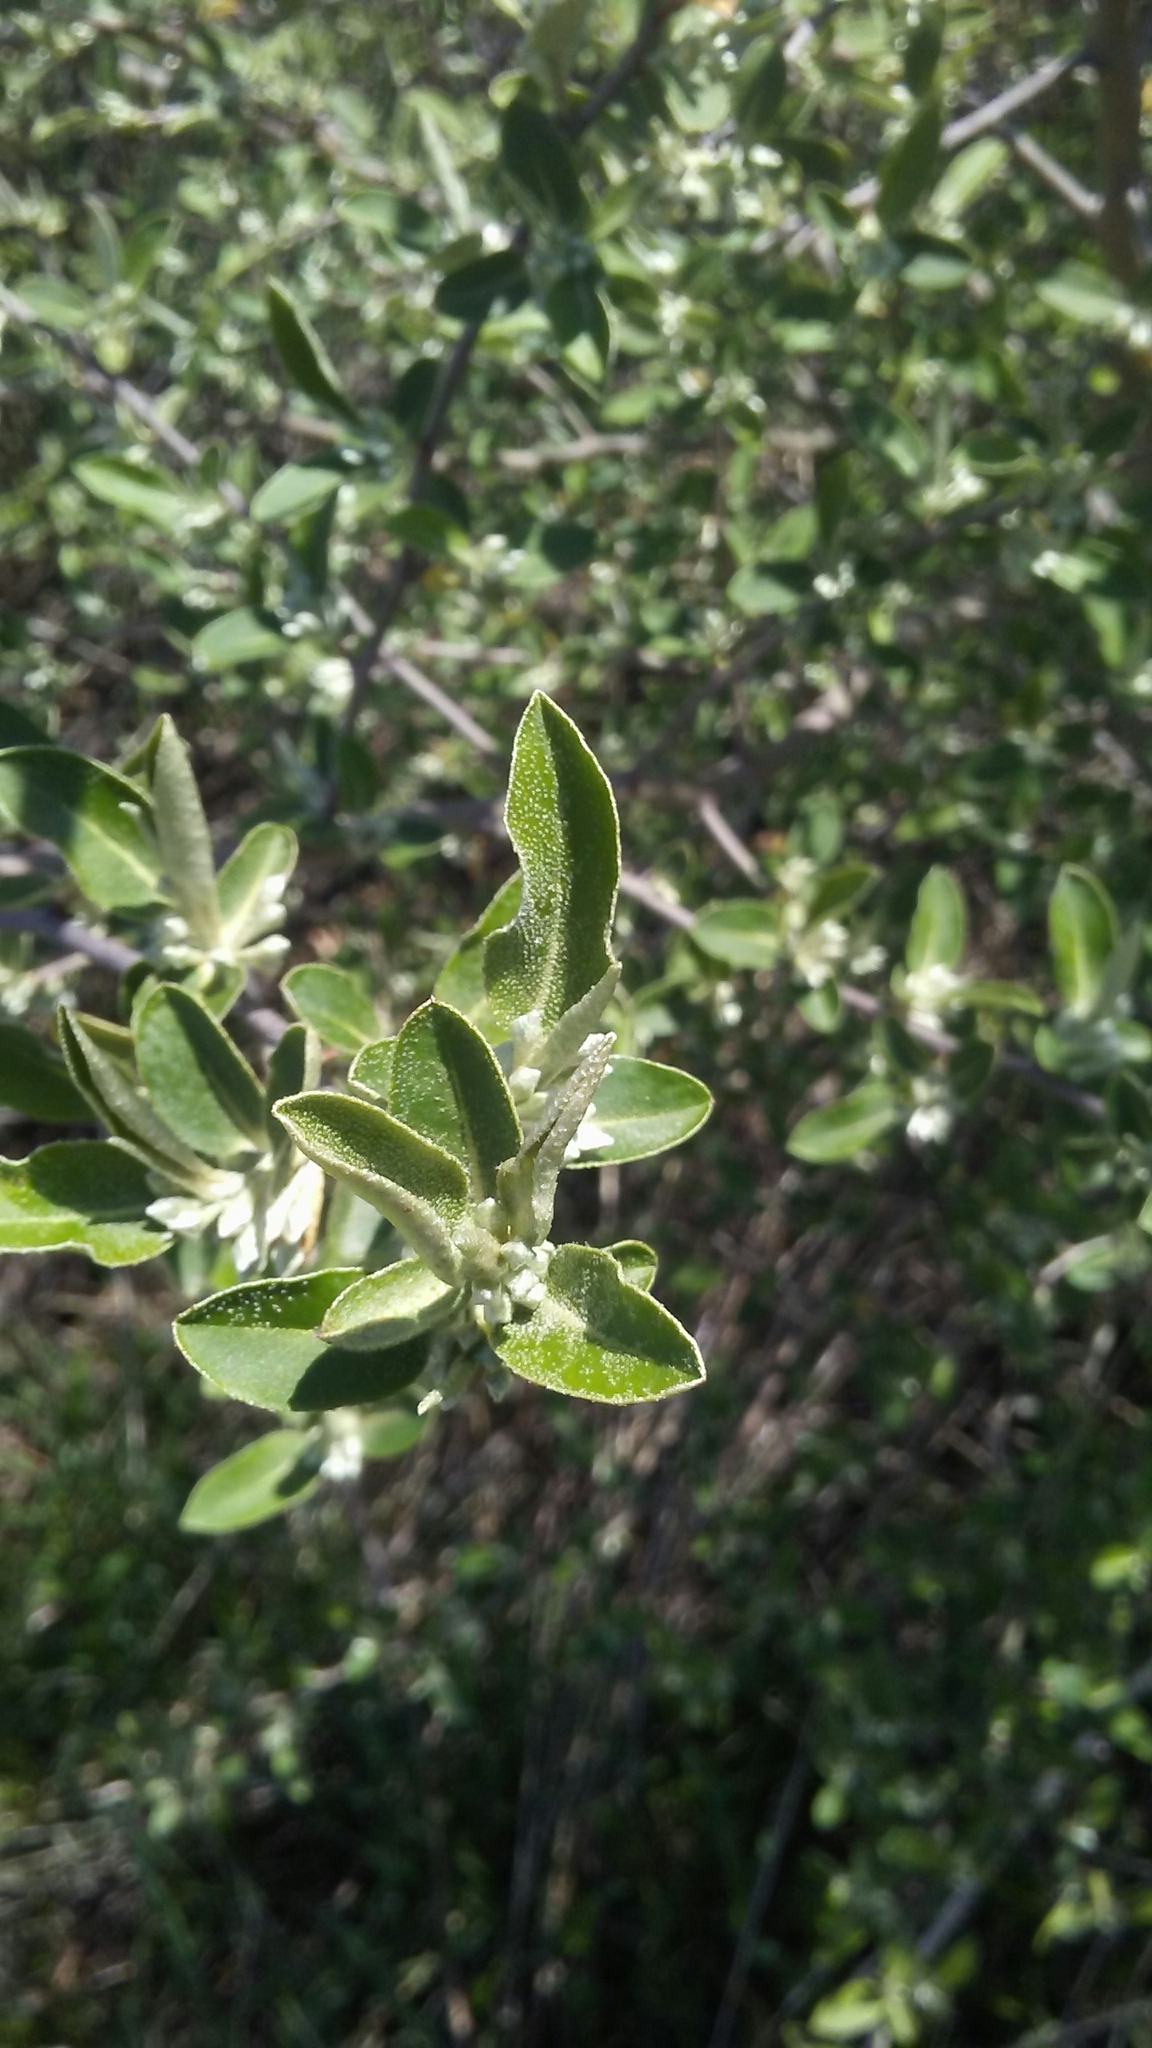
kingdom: Plantae
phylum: Tracheophyta
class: Magnoliopsida
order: Rosales
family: Elaeagnaceae
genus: Elaeagnus
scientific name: Elaeagnus umbellata
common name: Autumn olive
